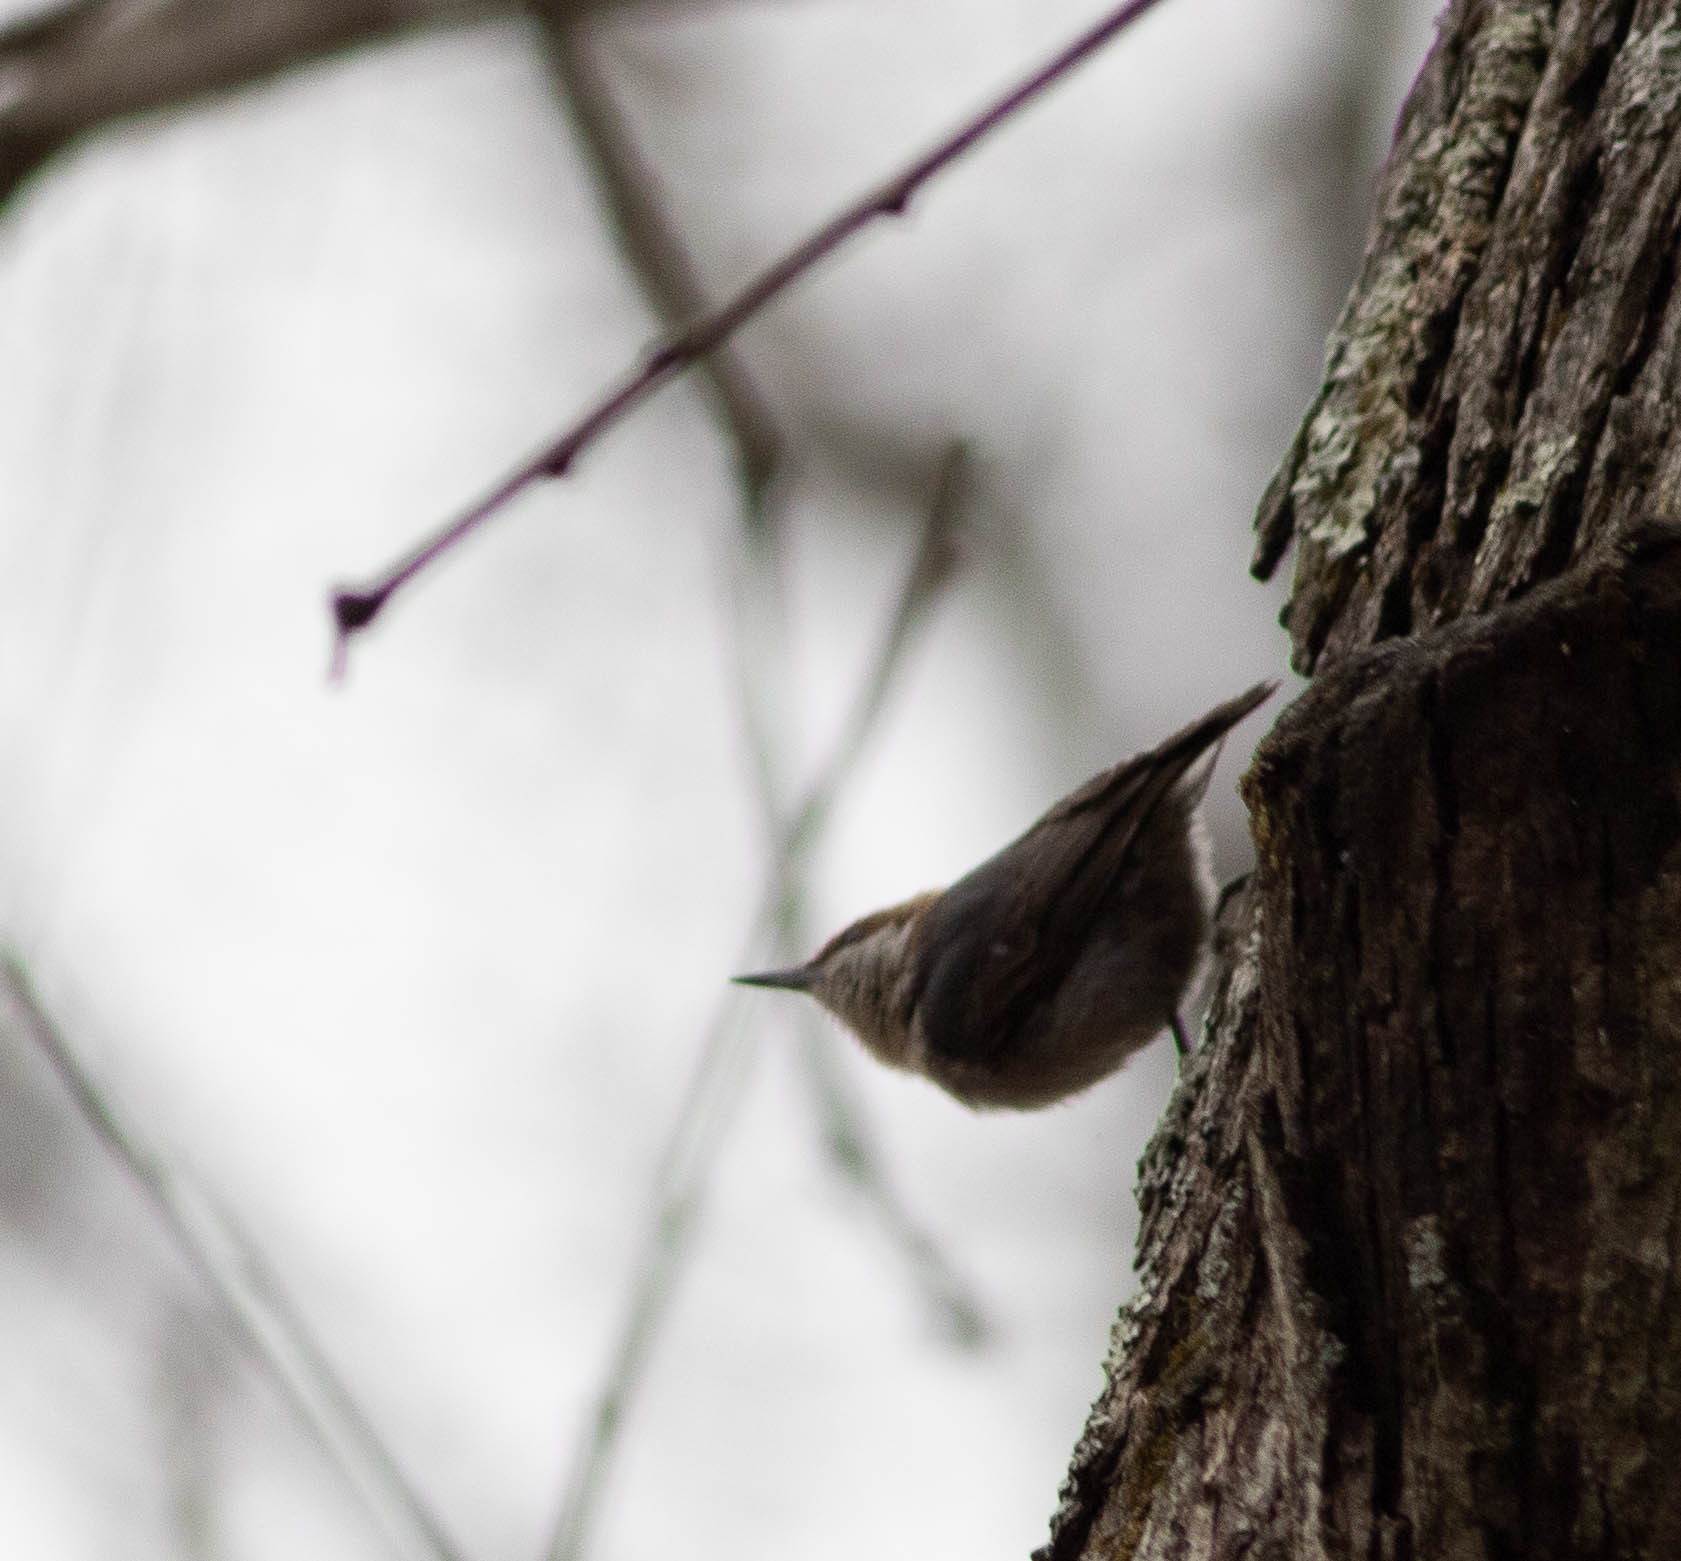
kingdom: Animalia
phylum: Chordata
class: Aves
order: Passeriformes
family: Sittidae
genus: Sitta
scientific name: Sitta pusilla
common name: Brown-headed nuthatch
